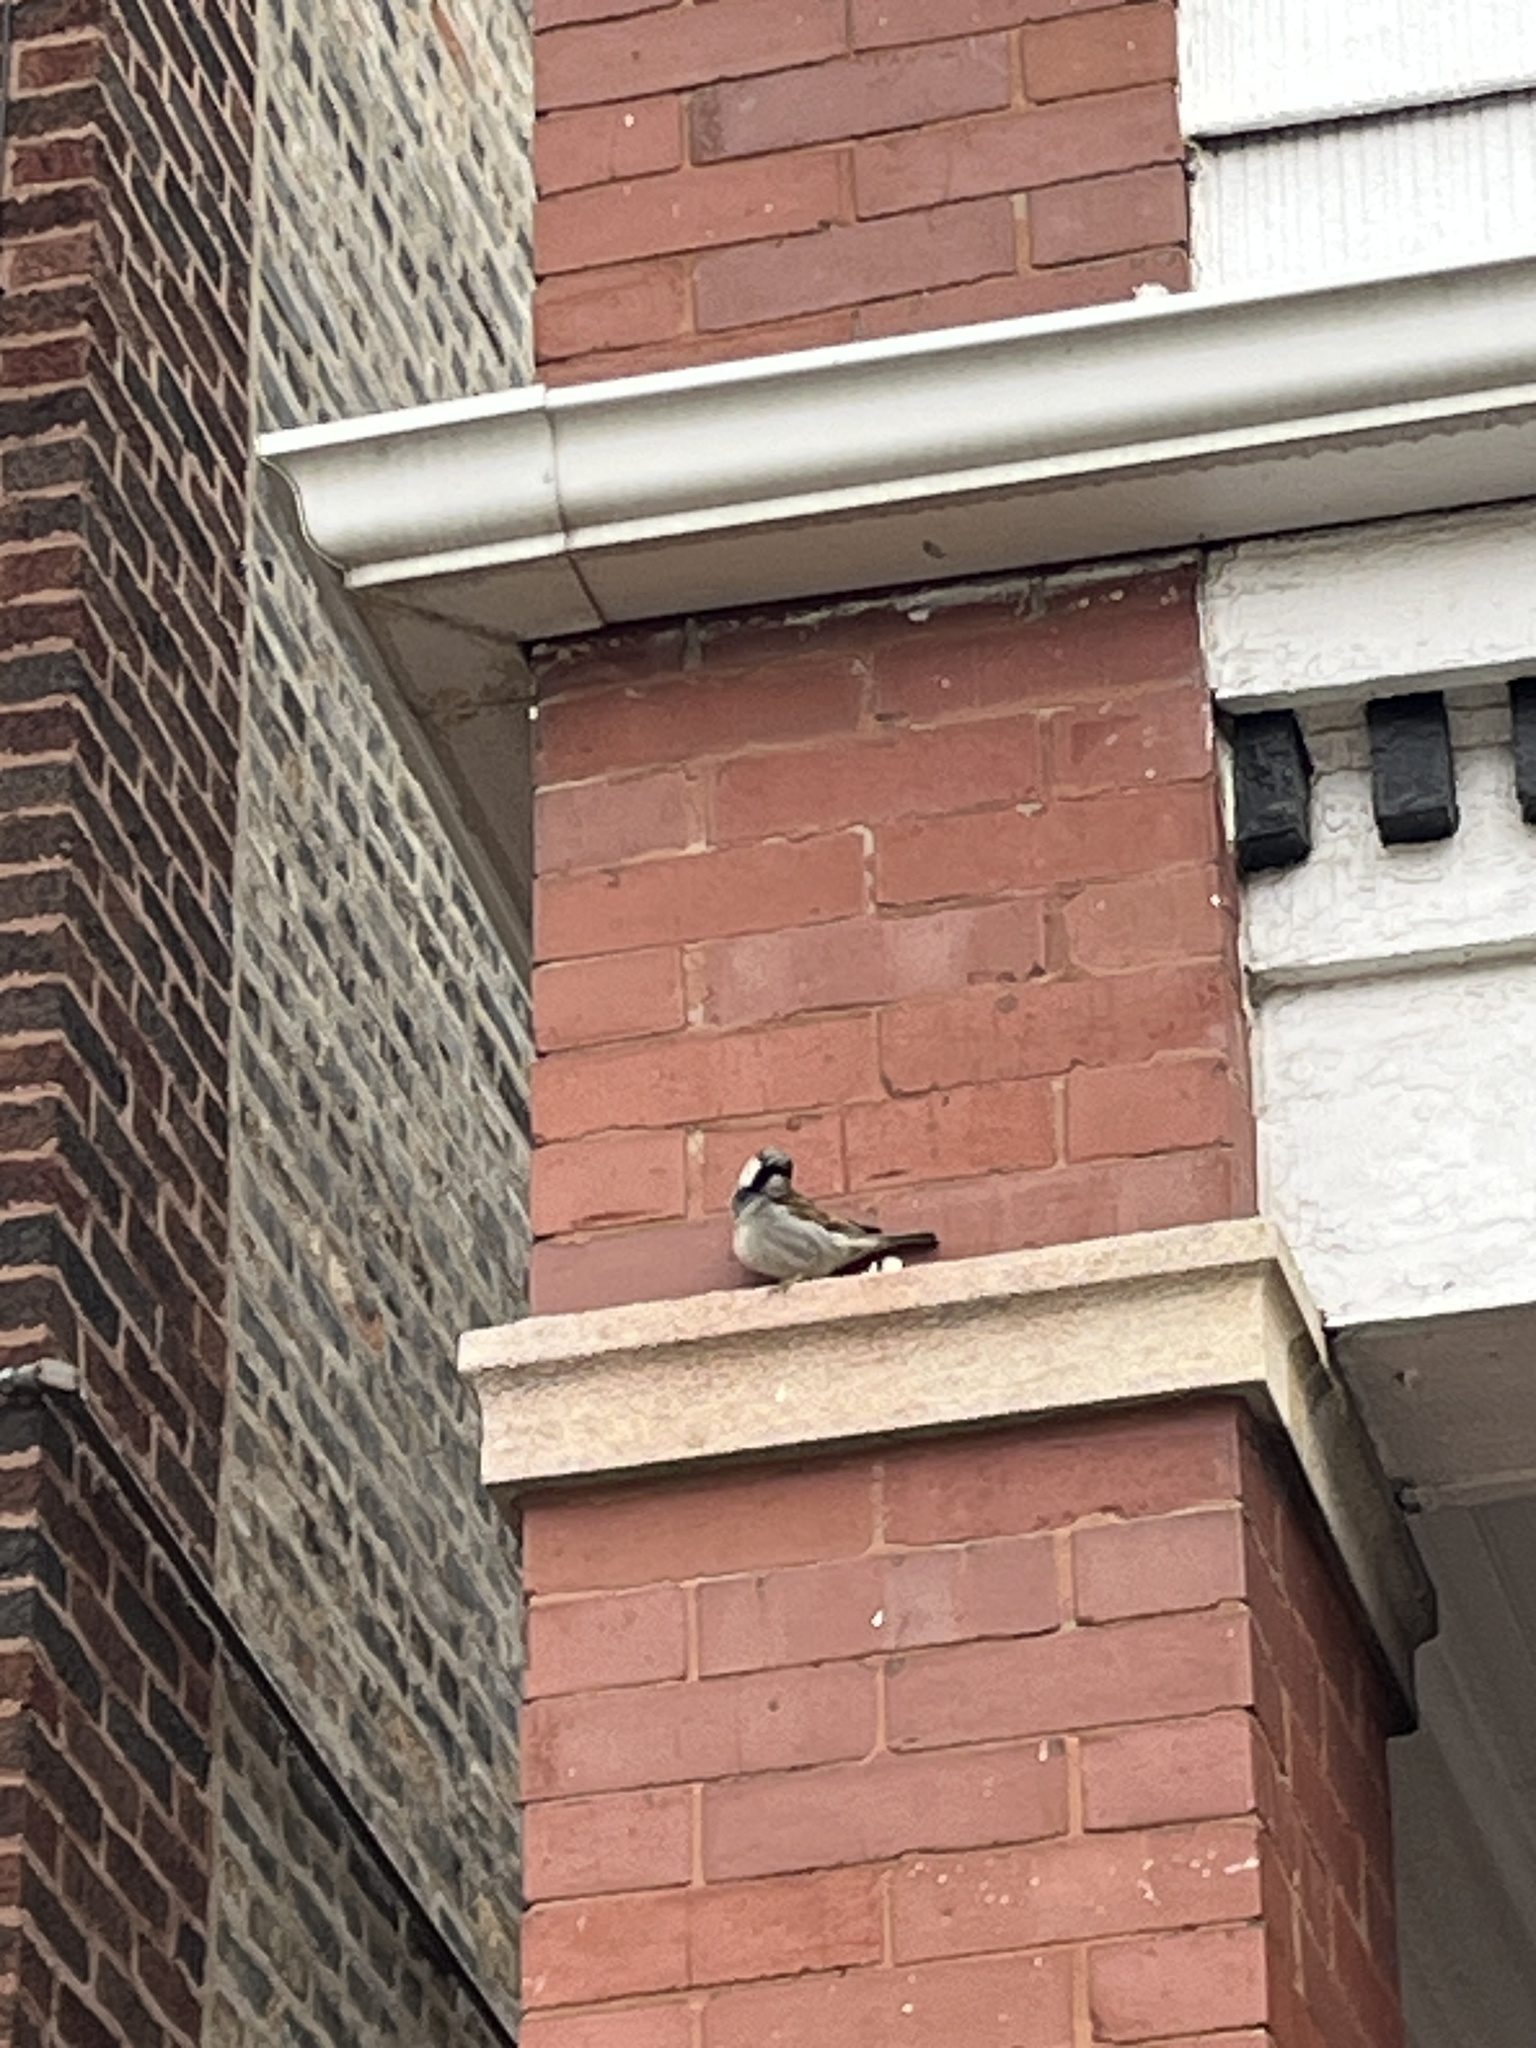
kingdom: Animalia
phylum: Chordata
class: Aves
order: Passeriformes
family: Passeridae
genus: Passer
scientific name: Passer domesticus
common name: House sparrow
